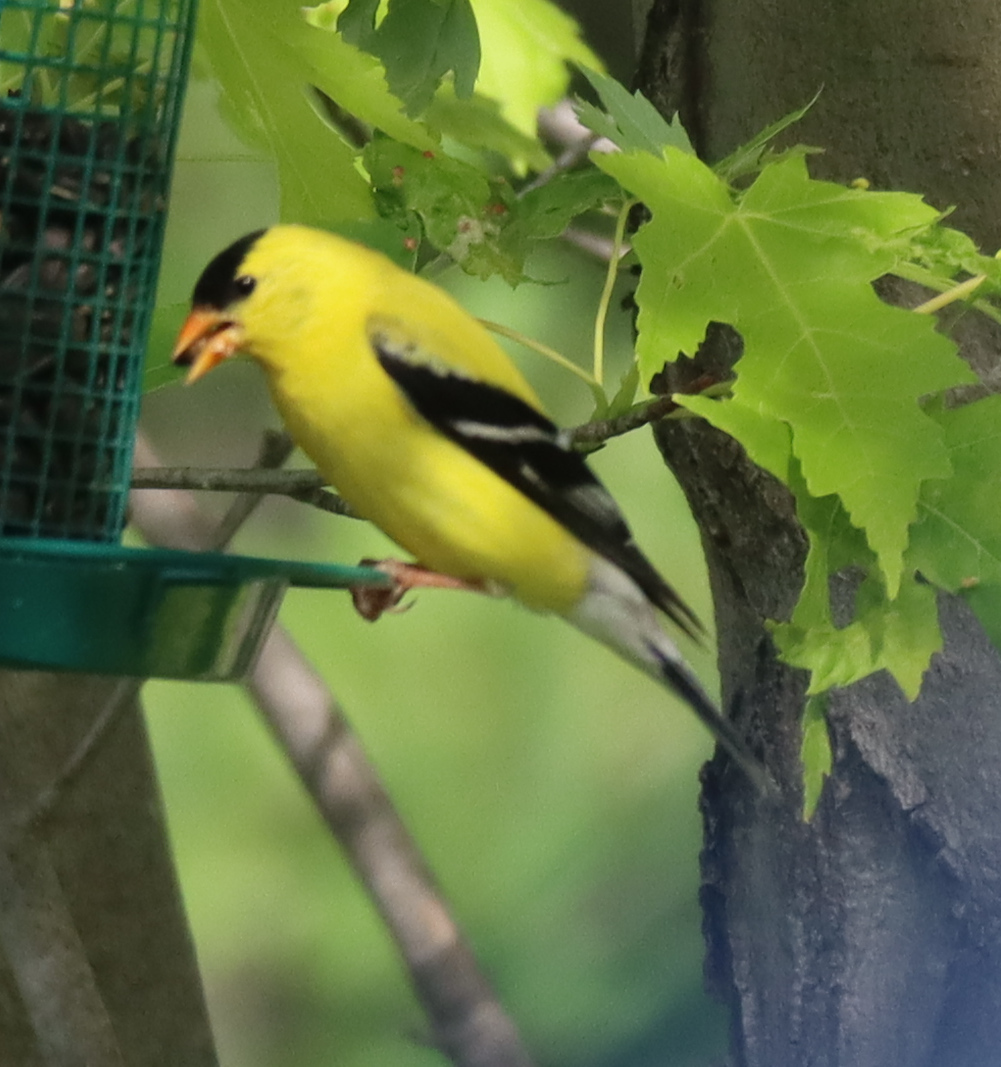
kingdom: Animalia
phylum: Chordata
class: Aves
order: Passeriformes
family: Fringillidae
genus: Spinus
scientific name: Spinus tristis
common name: American goldfinch
